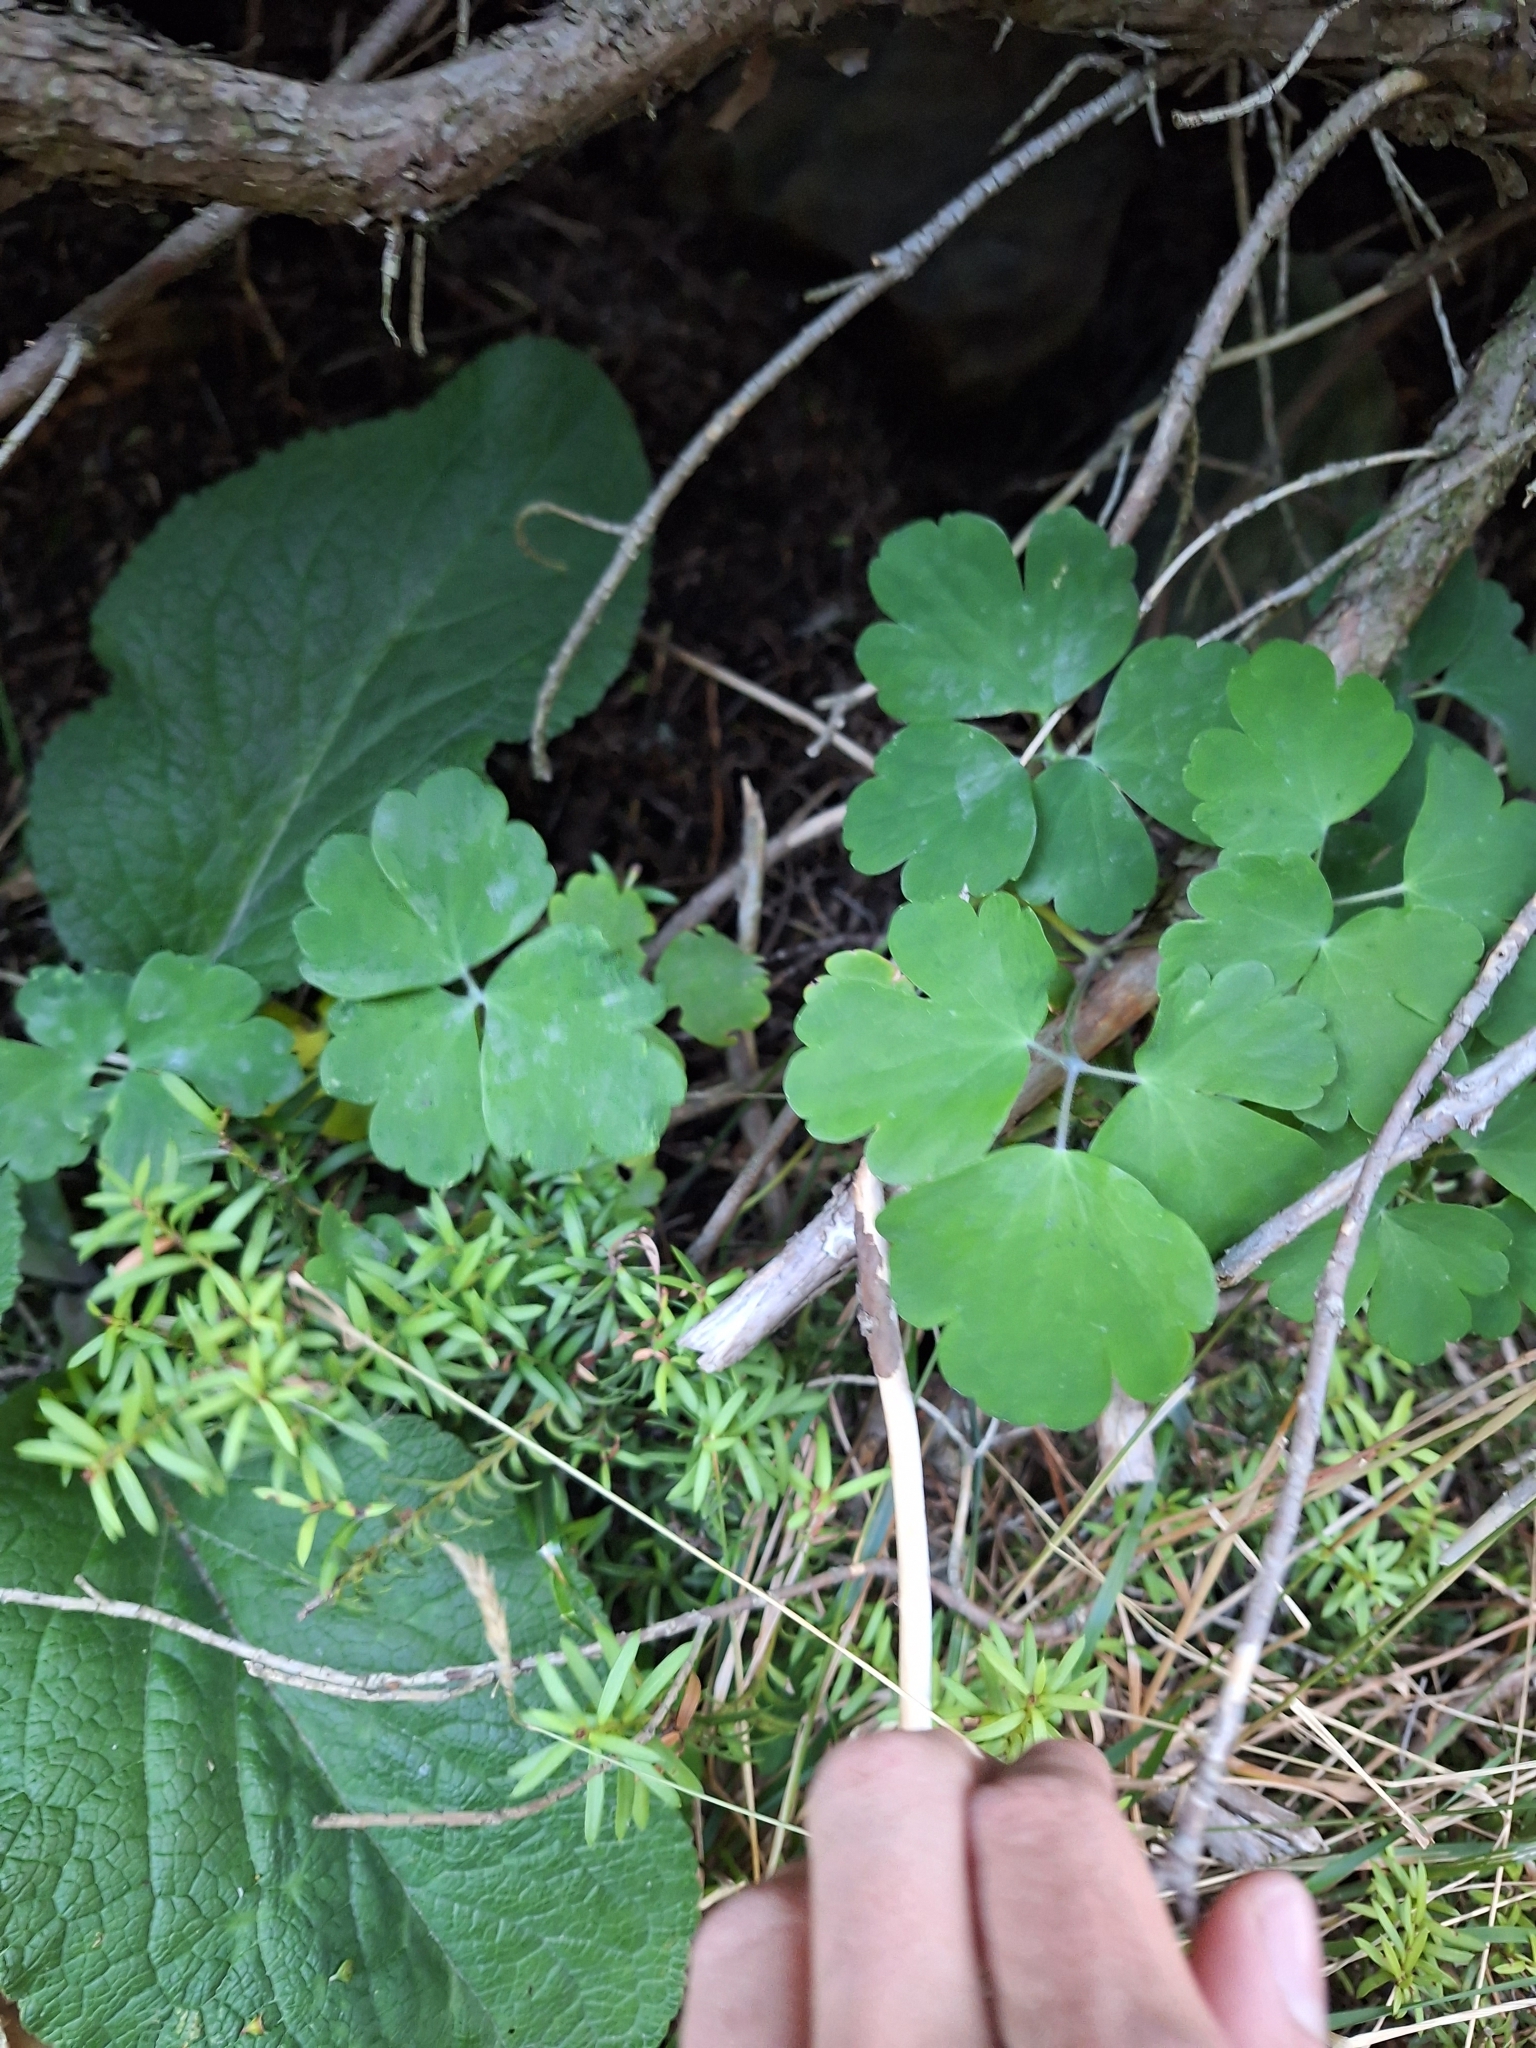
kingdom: Plantae
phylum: Tracheophyta
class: Magnoliopsida
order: Ranunculales
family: Ranunculaceae
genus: Aquilegia
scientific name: Aquilegia vulgaris
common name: Columbine
